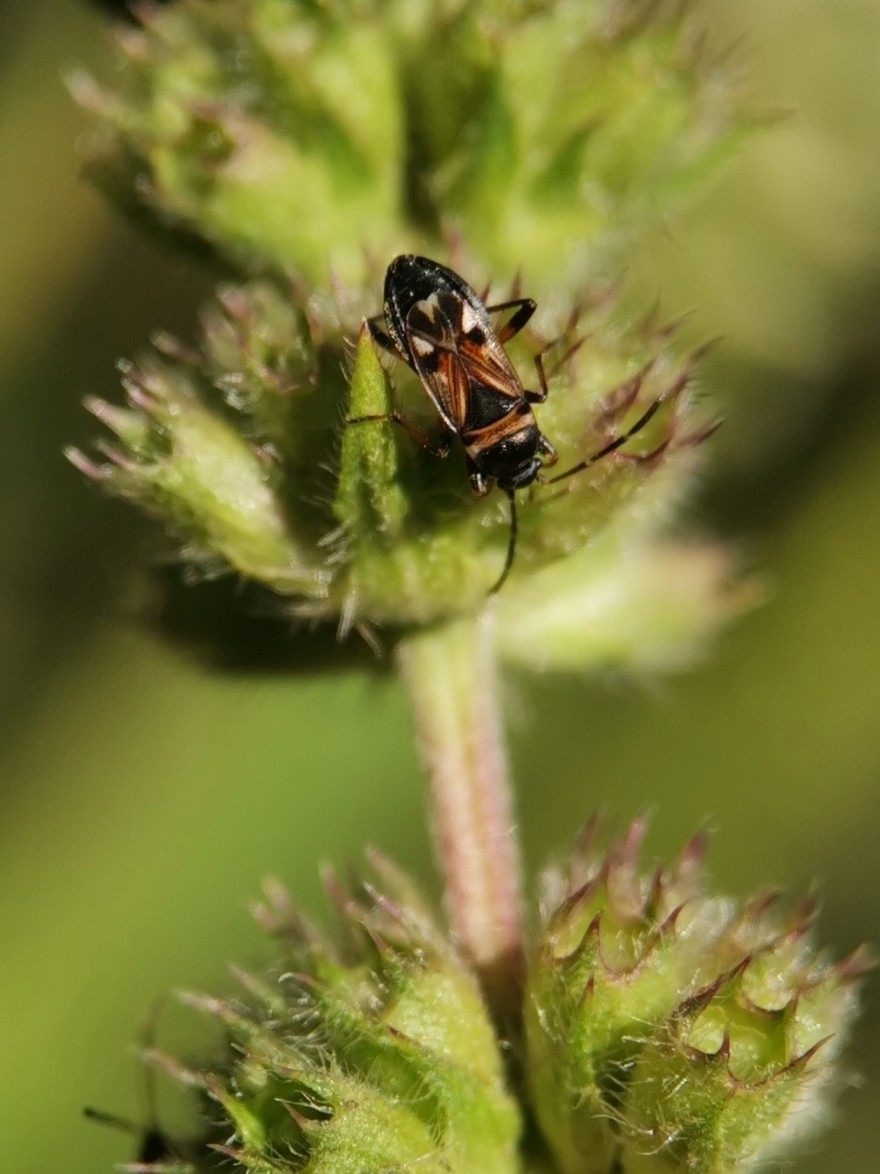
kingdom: Animalia
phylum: Arthropoda
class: Insecta
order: Hemiptera
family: Rhyparochromidae
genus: Raglius
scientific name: Raglius alboacuminatus
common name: Dirt-colored seed bug
